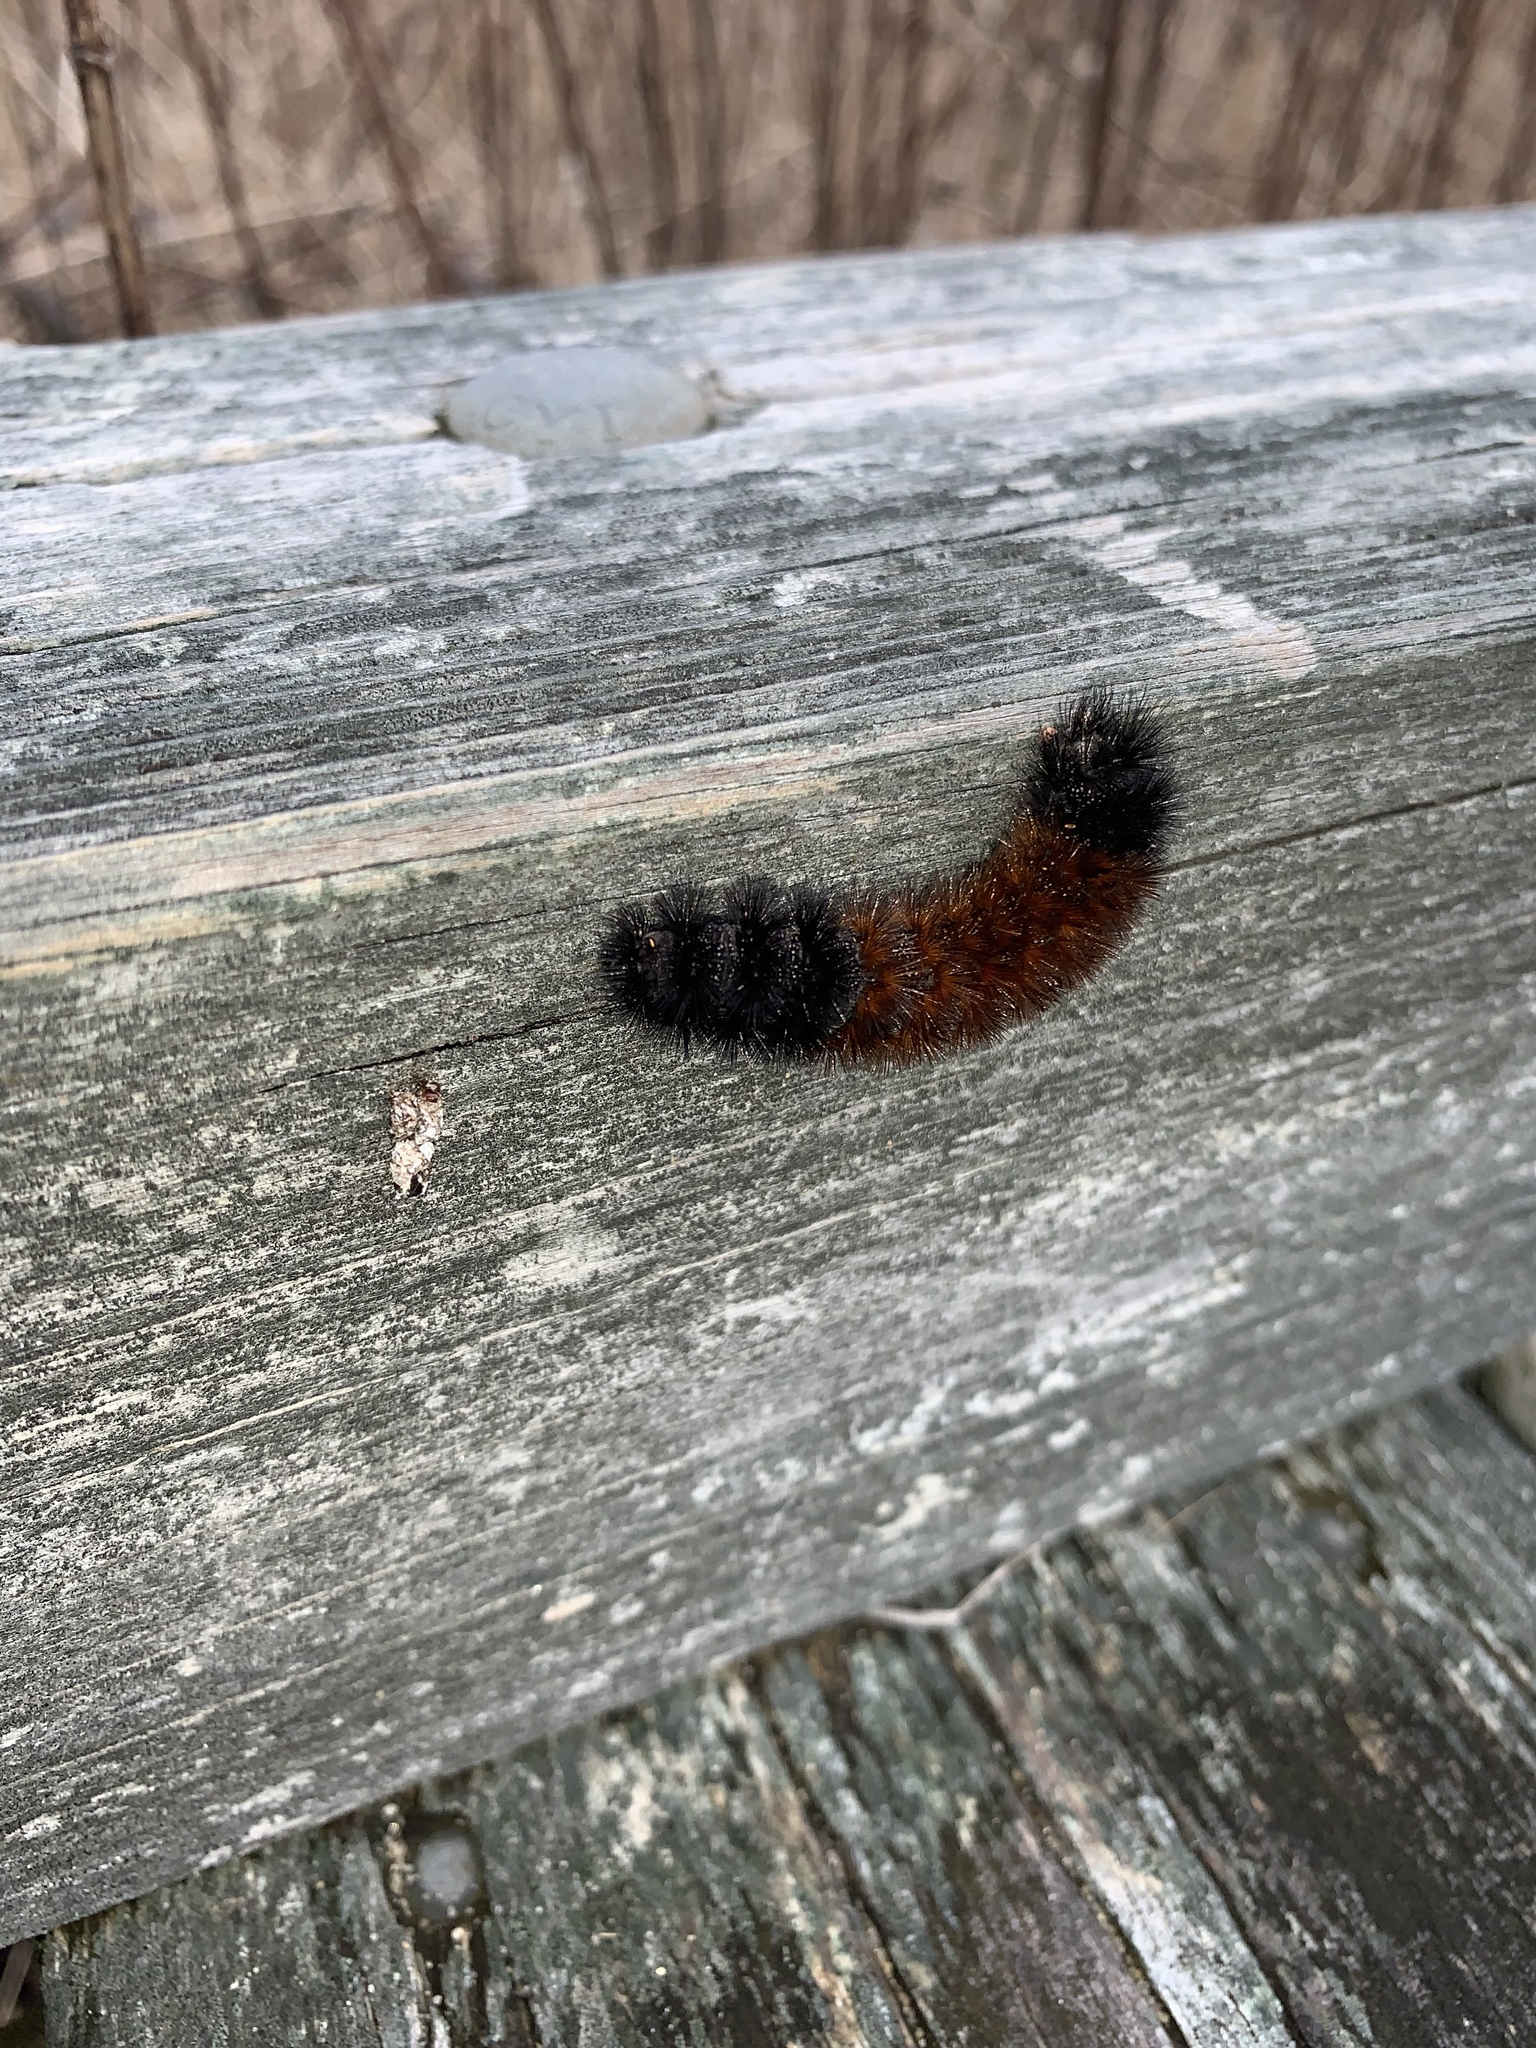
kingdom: Animalia
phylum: Arthropoda
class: Insecta
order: Lepidoptera
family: Erebidae
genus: Pyrrharctia
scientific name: Pyrrharctia isabella
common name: Isabella tiger moth
